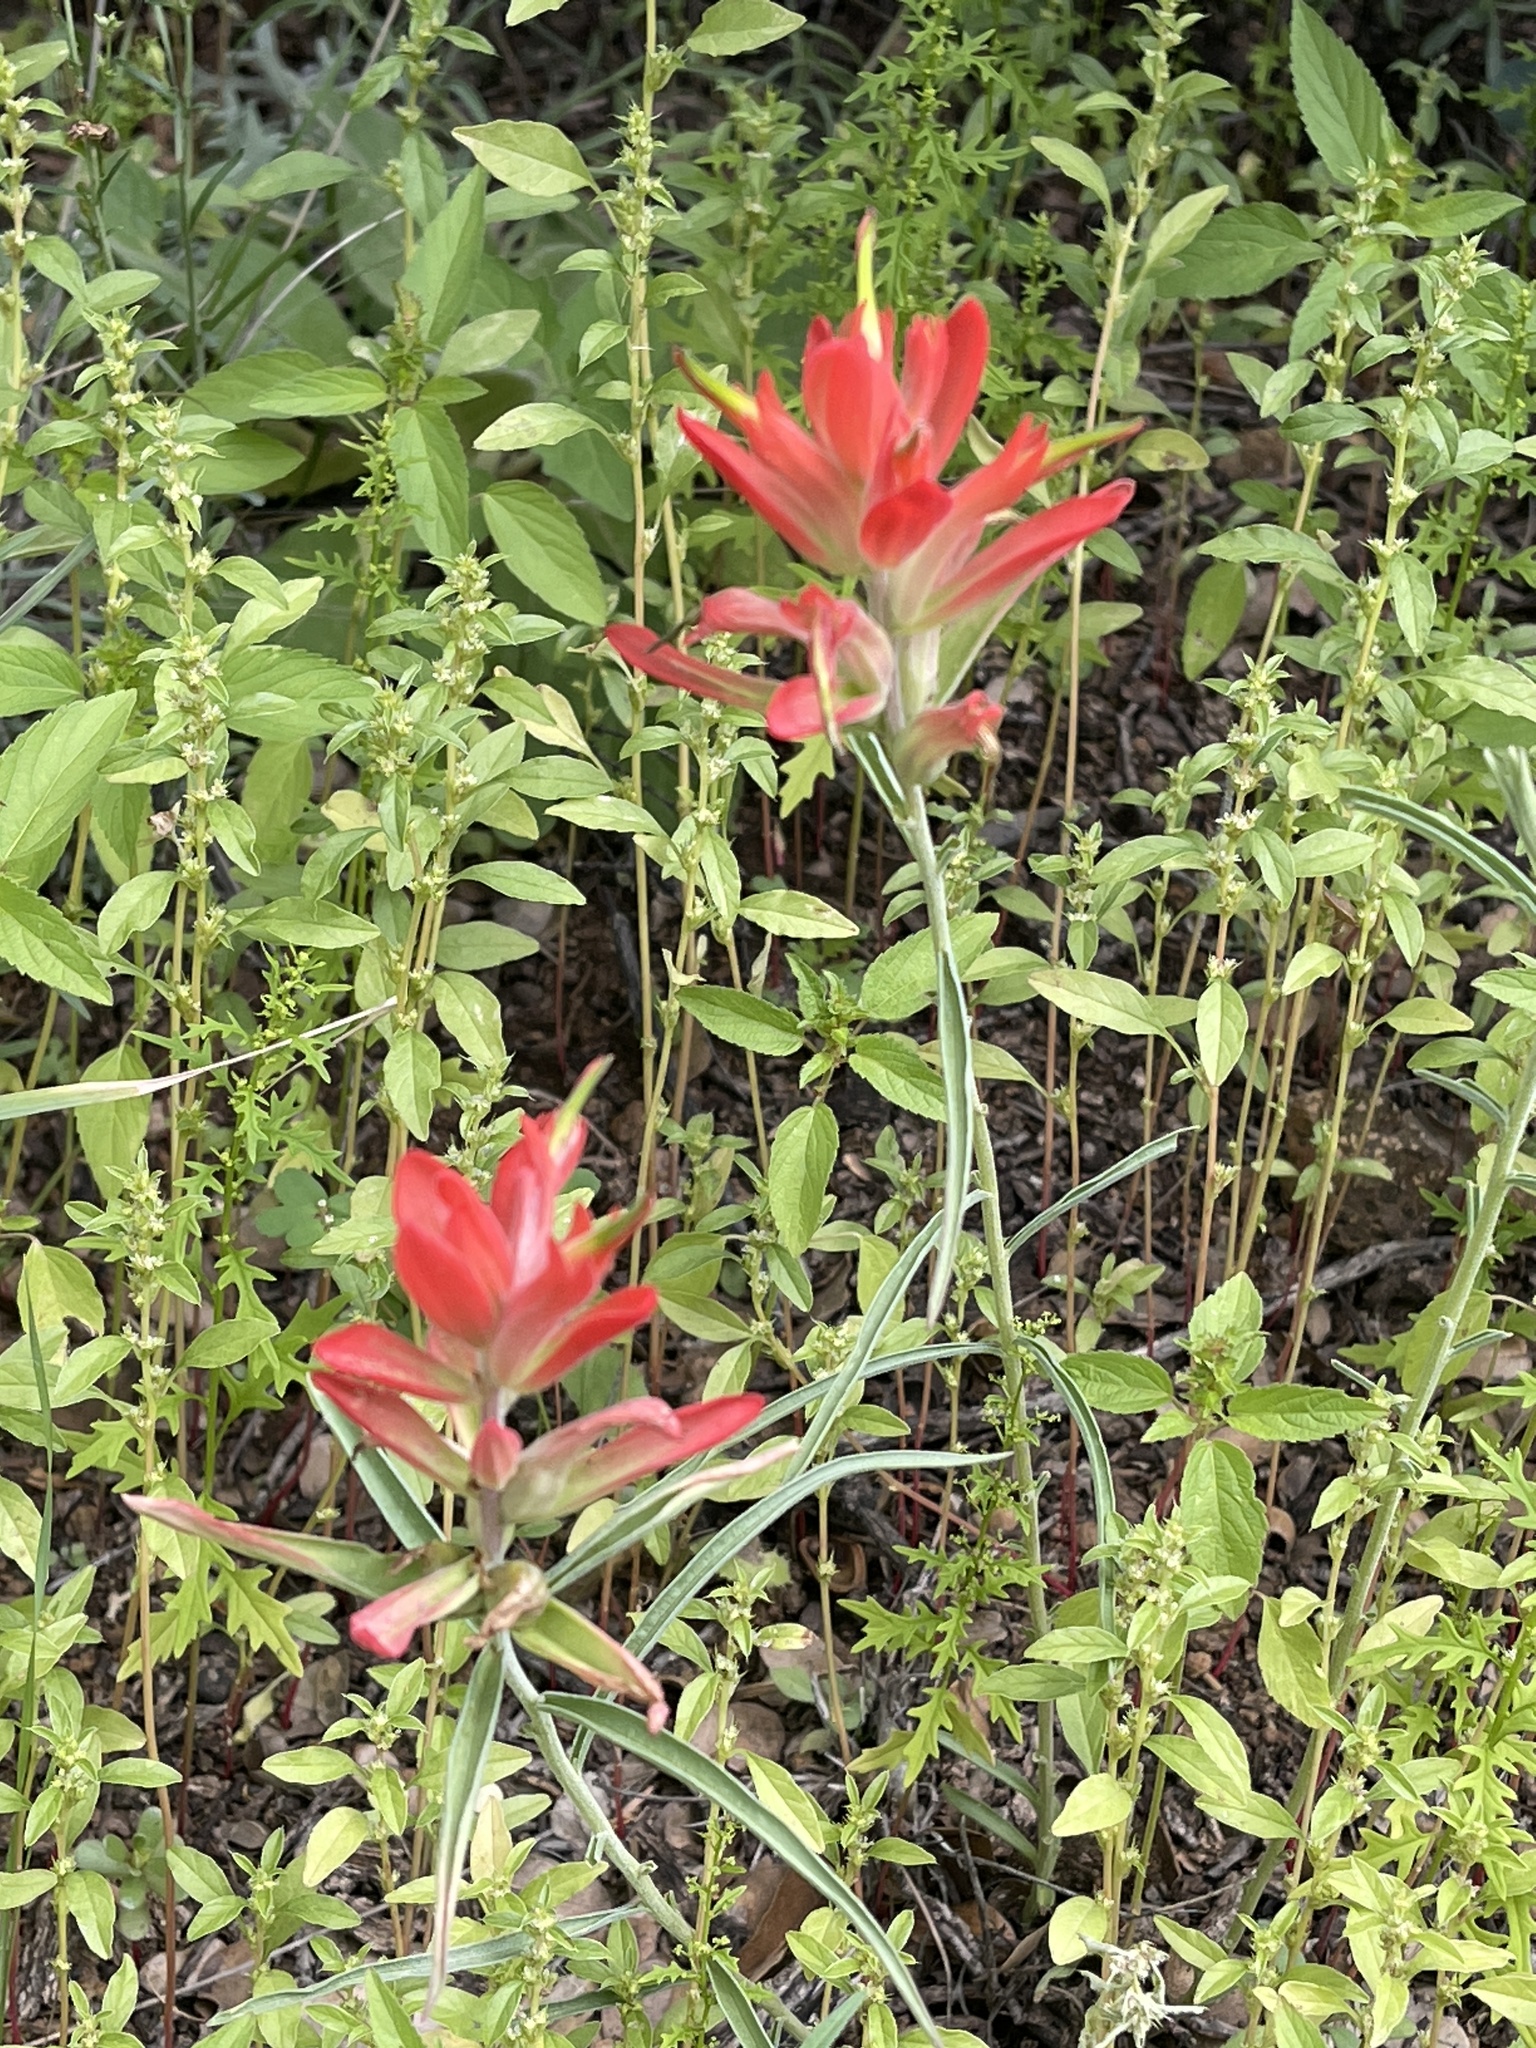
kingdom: Plantae
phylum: Tracheophyta
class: Magnoliopsida
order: Lamiales
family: Orobanchaceae
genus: Castilleja
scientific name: Castilleja integra
